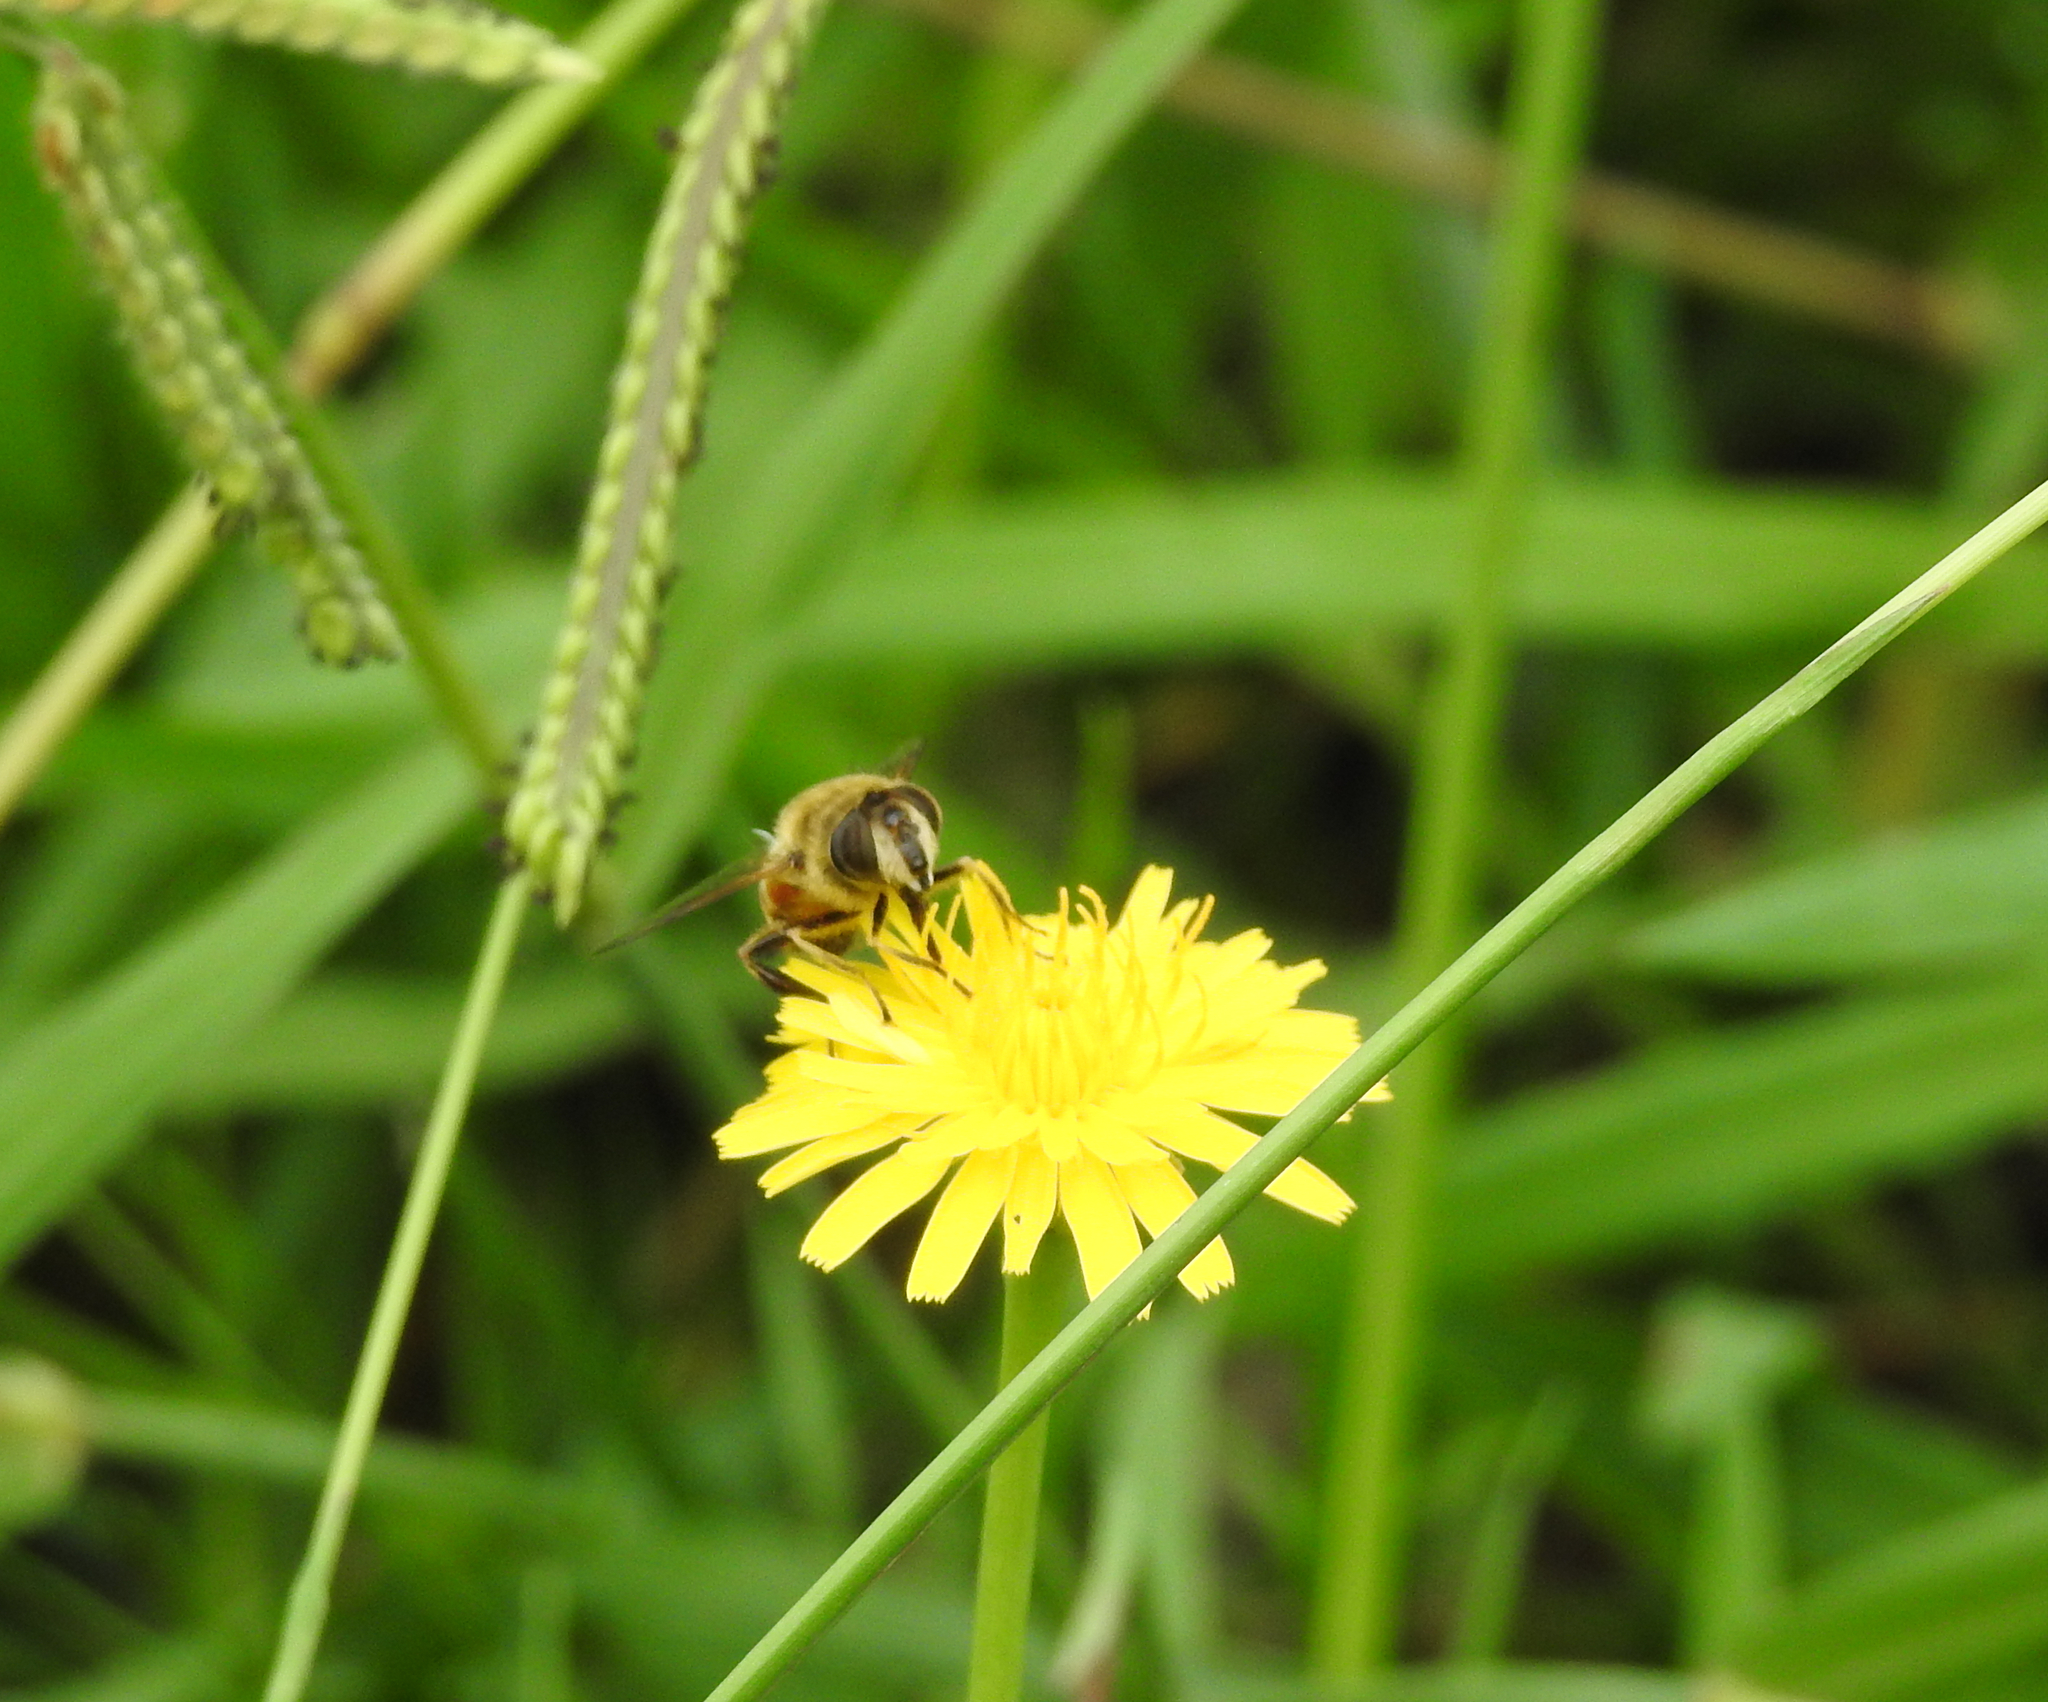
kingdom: Animalia
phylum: Arthropoda
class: Insecta
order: Diptera
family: Syrphidae
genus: Eristalis
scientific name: Eristalis tenax
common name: Drone fly
